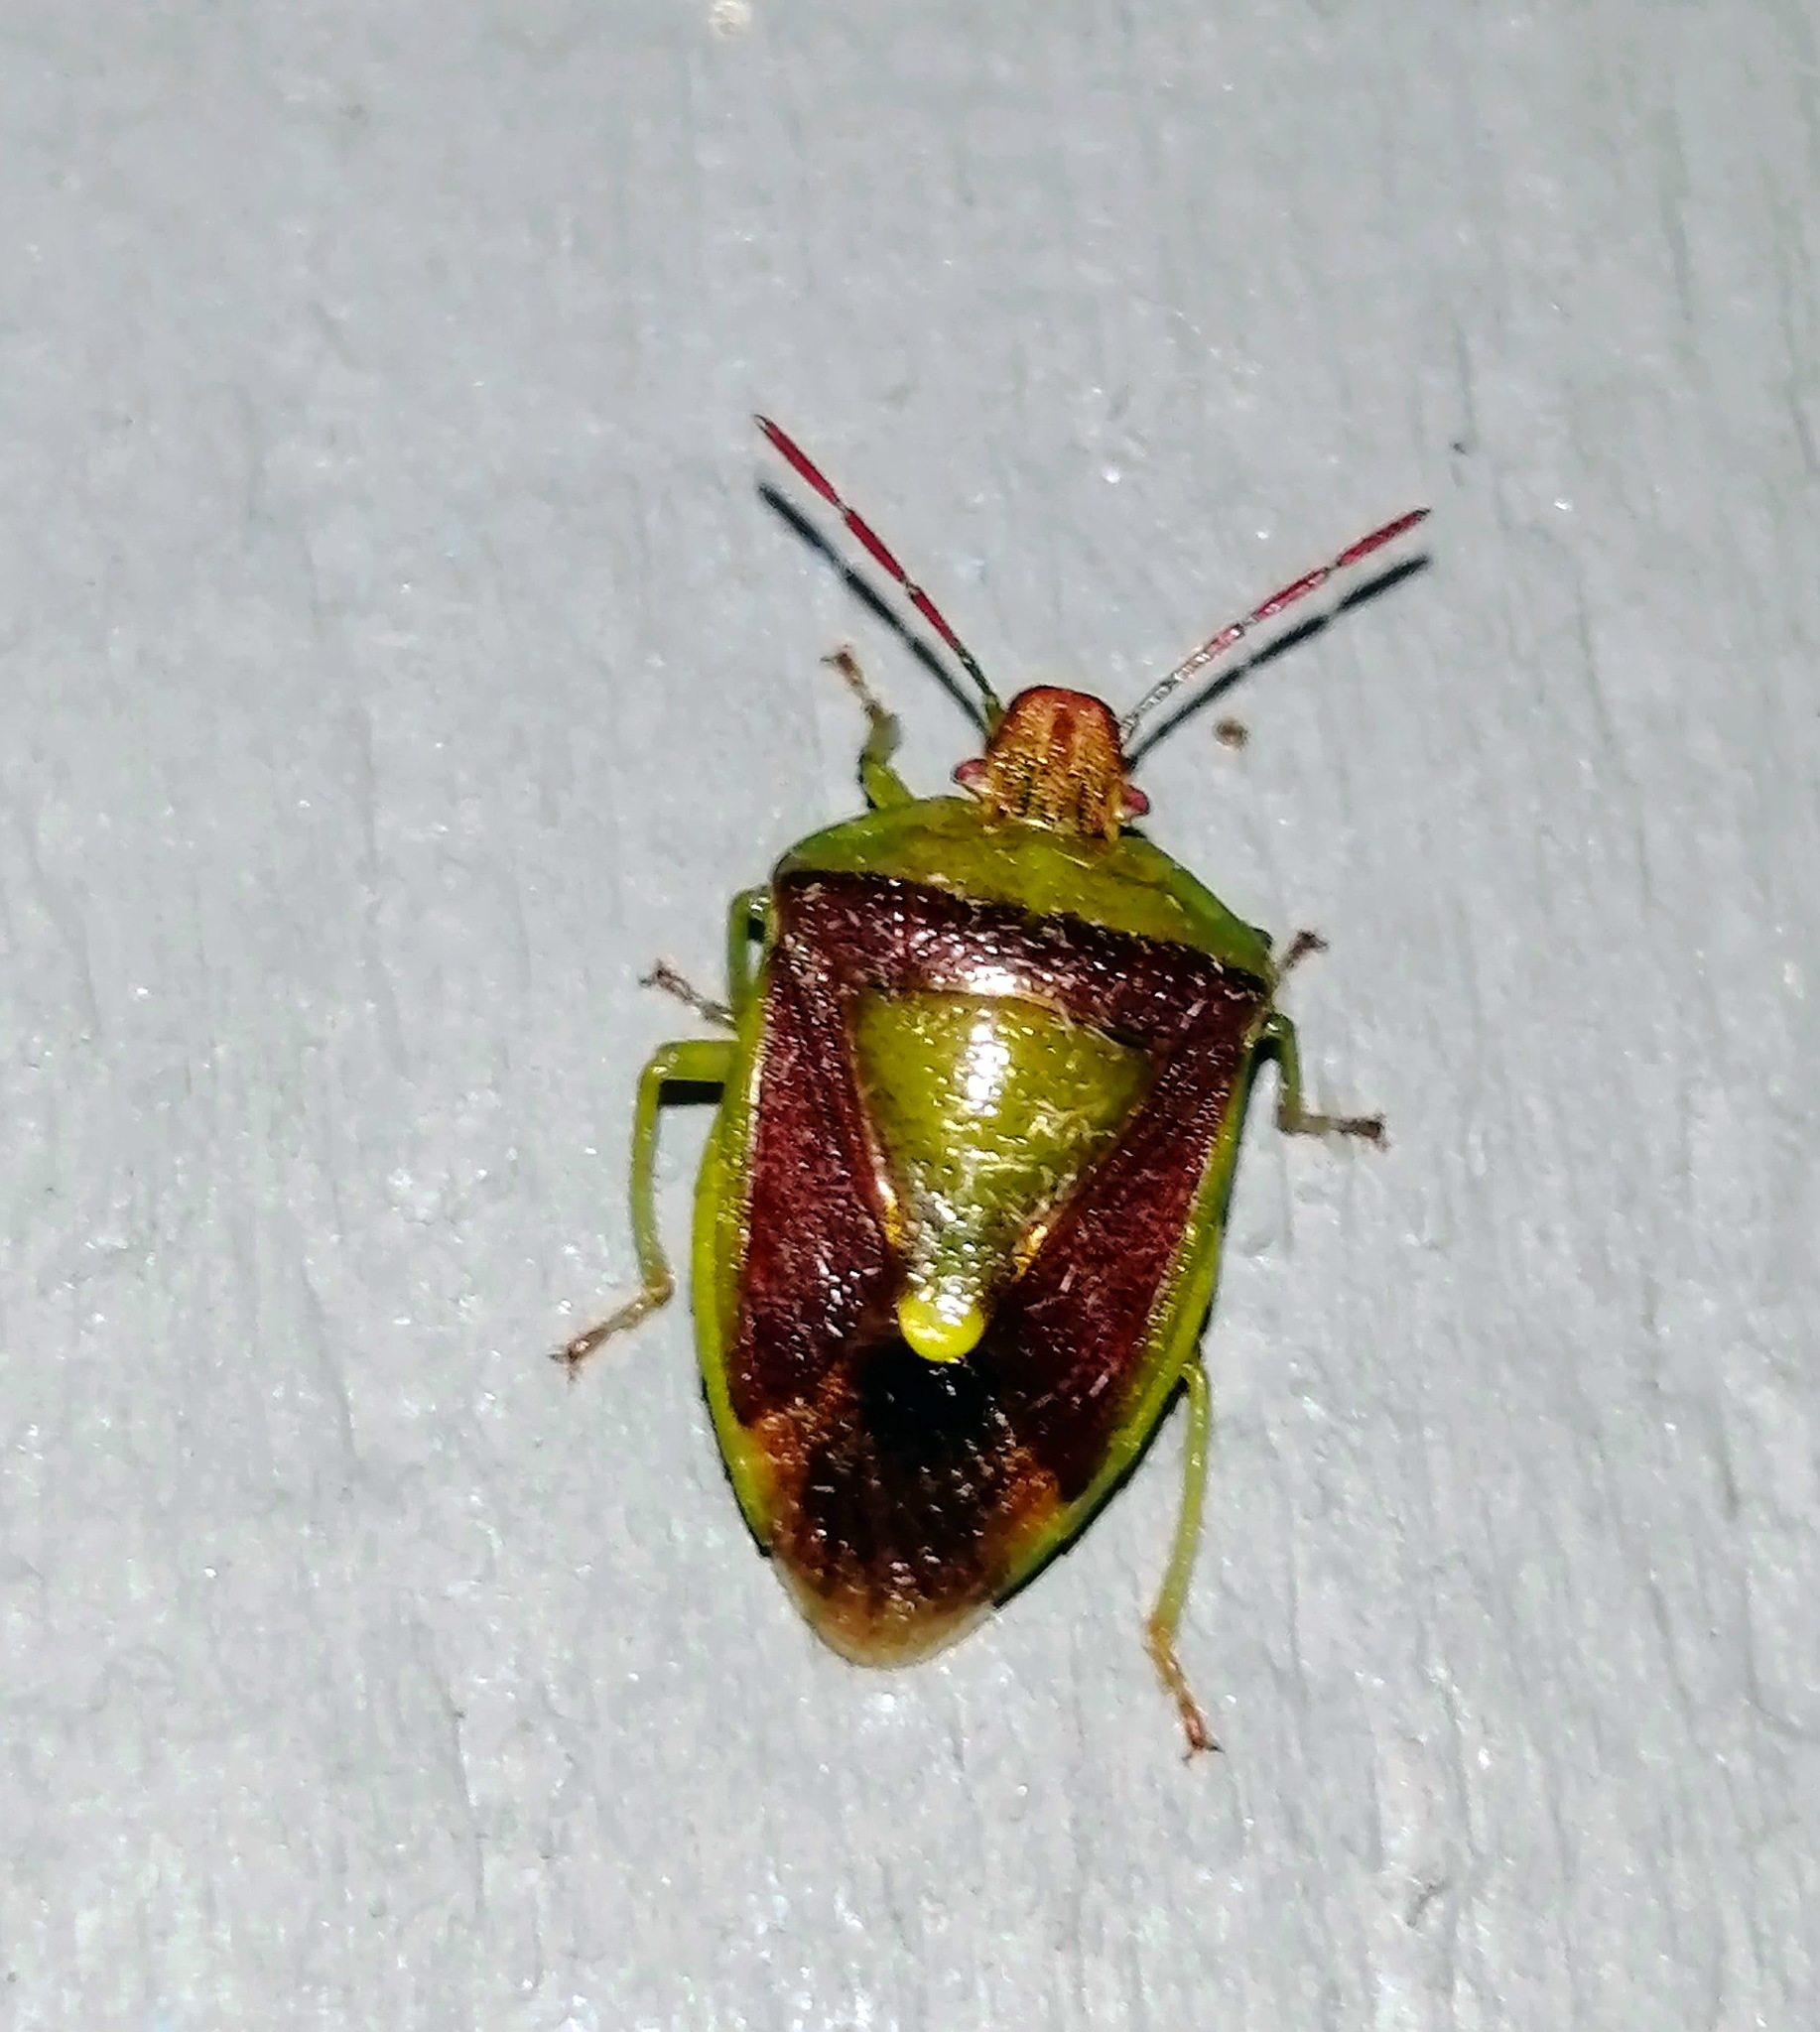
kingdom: Animalia
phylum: Arthropoda
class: Insecta
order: Hemiptera
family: Pentatomidae
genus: Banasa
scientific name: Banasa dimidiata
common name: Green burgundy stink bug
